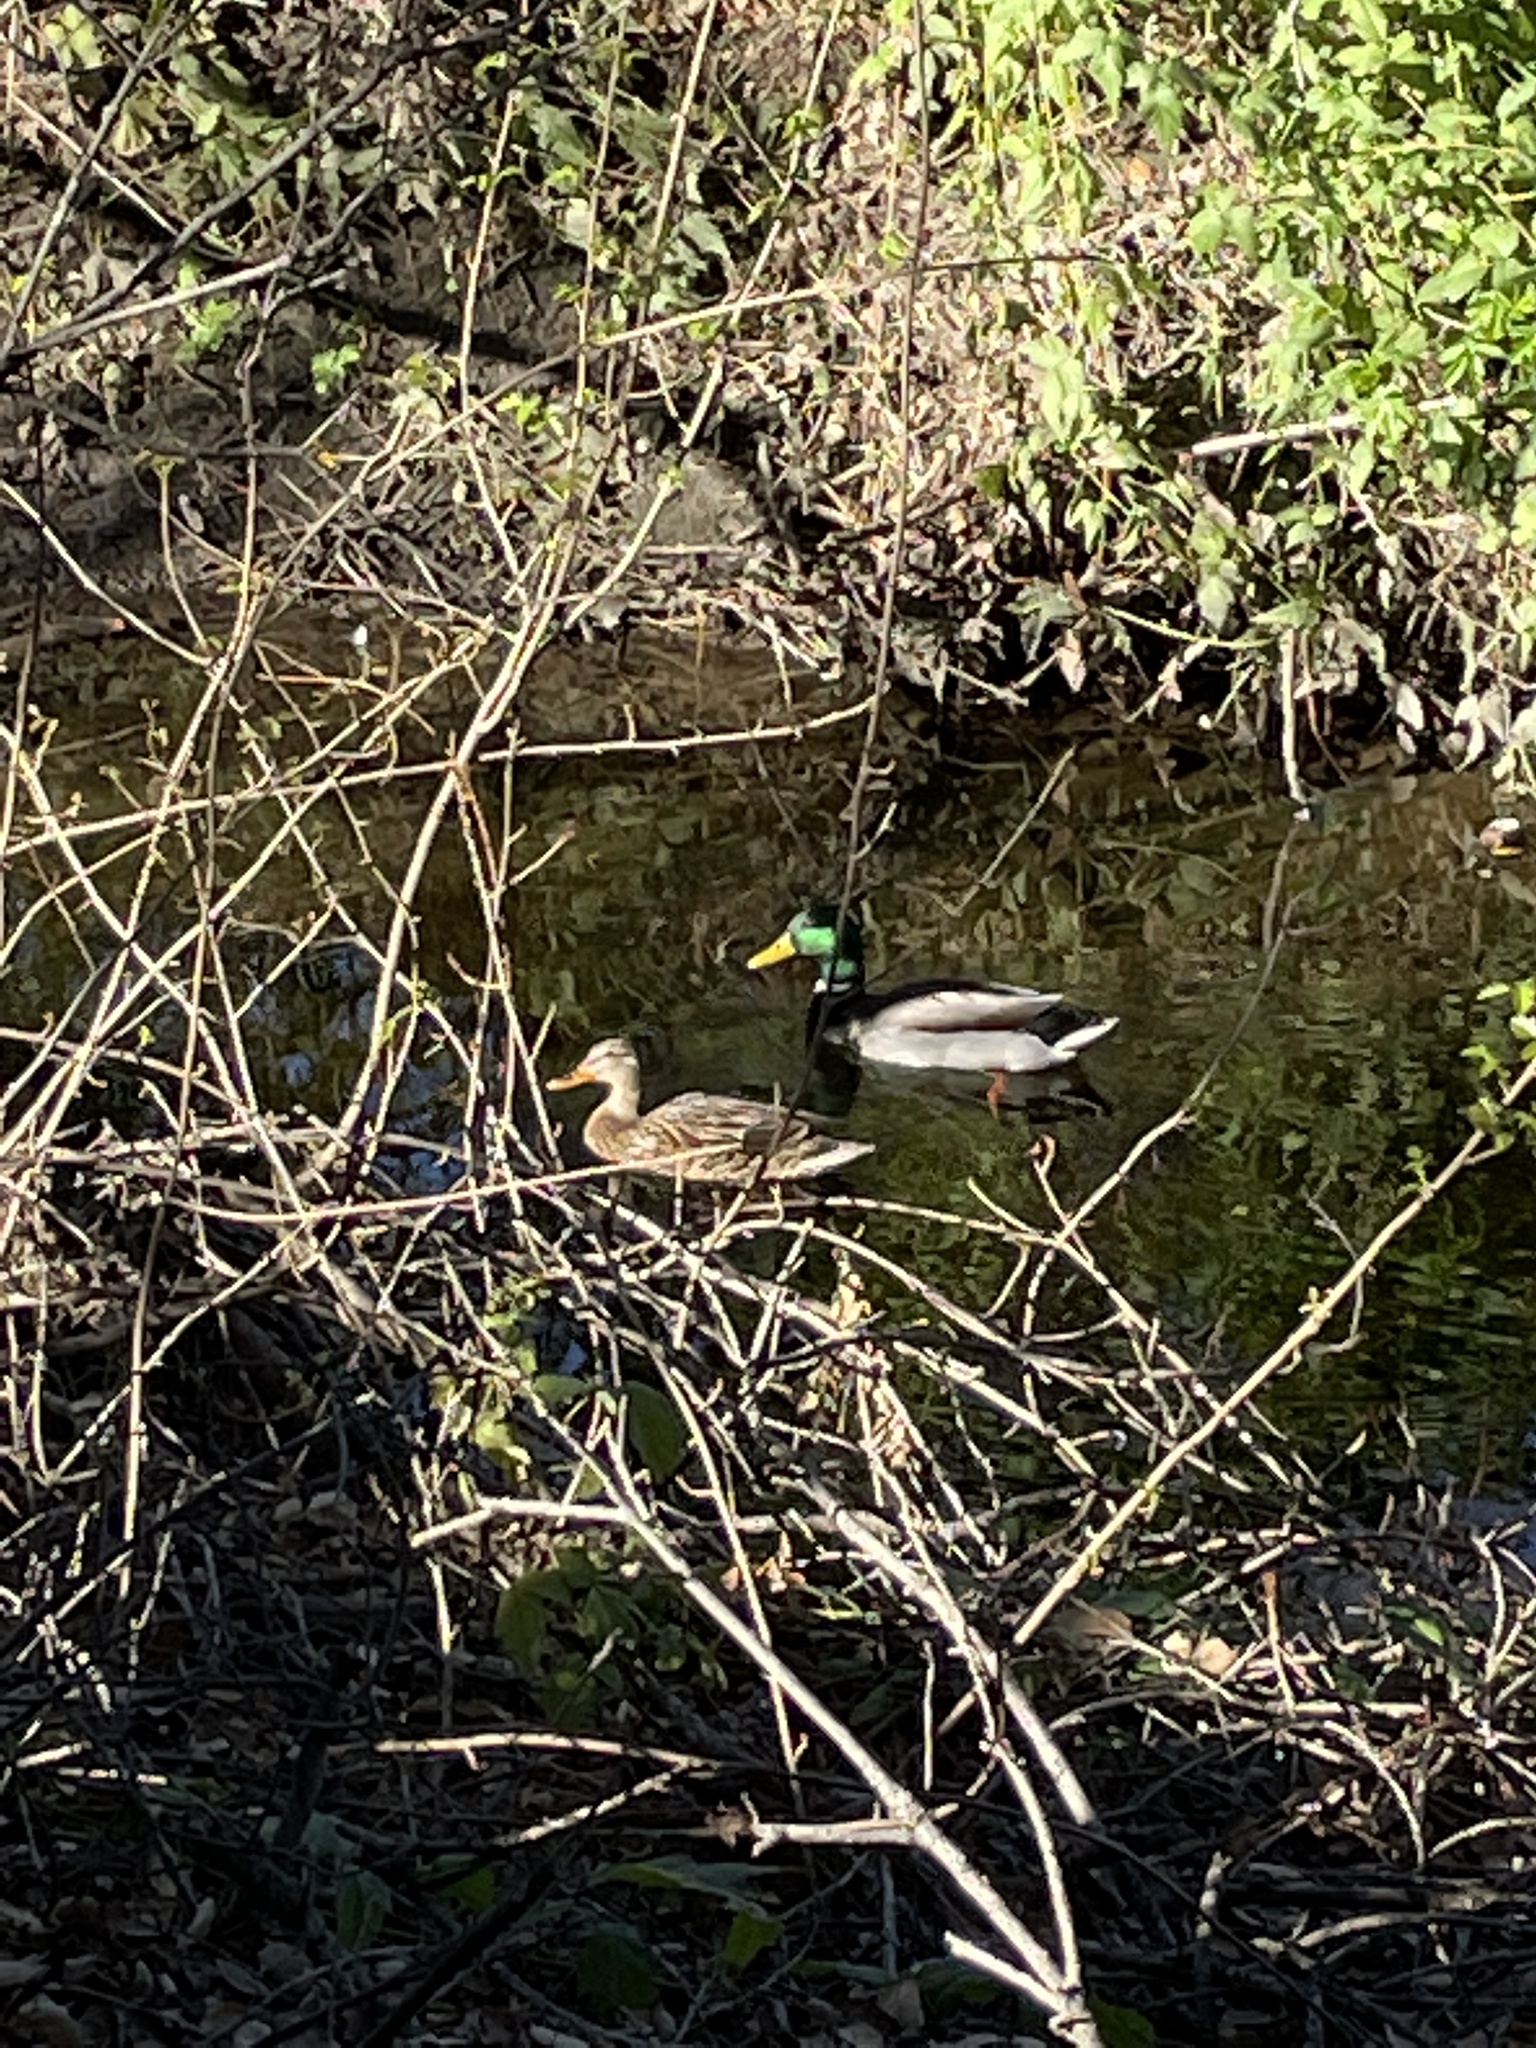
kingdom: Animalia
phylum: Chordata
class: Aves
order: Anseriformes
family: Anatidae
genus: Anas
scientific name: Anas platyrhynchos
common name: Mallard
